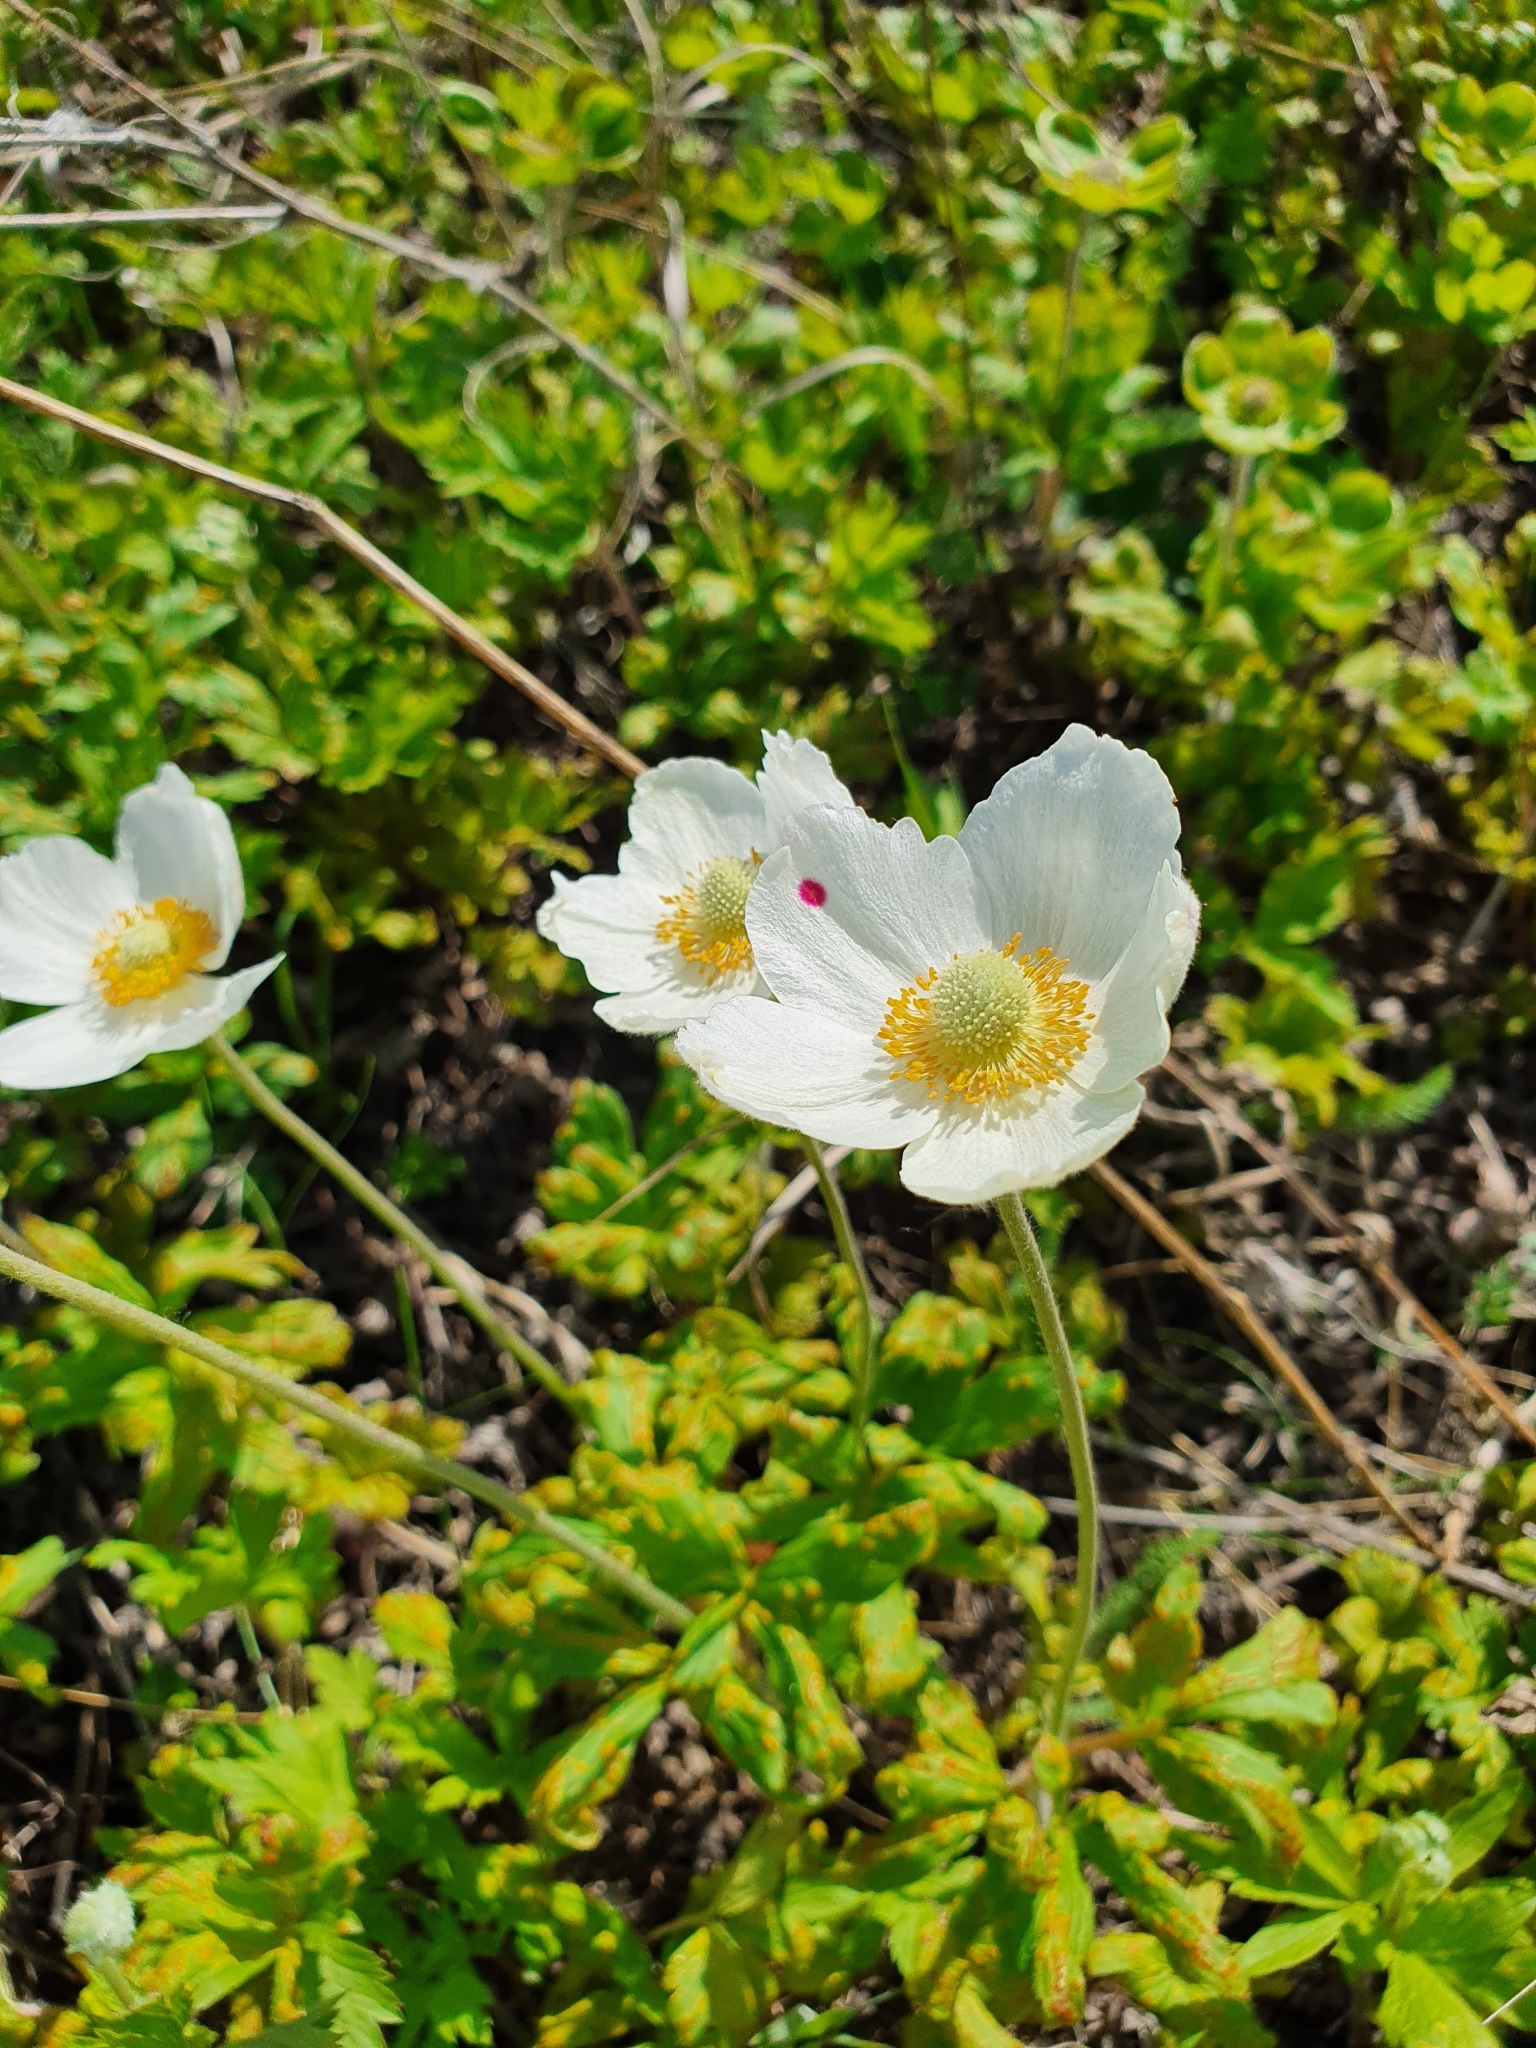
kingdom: Plantae
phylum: Tracheophyta
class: Magnoliopsida
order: Ranunculales
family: Ranunculaceae
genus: Anemone
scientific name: Anemone sylvestris
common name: Snowdrop anemone
